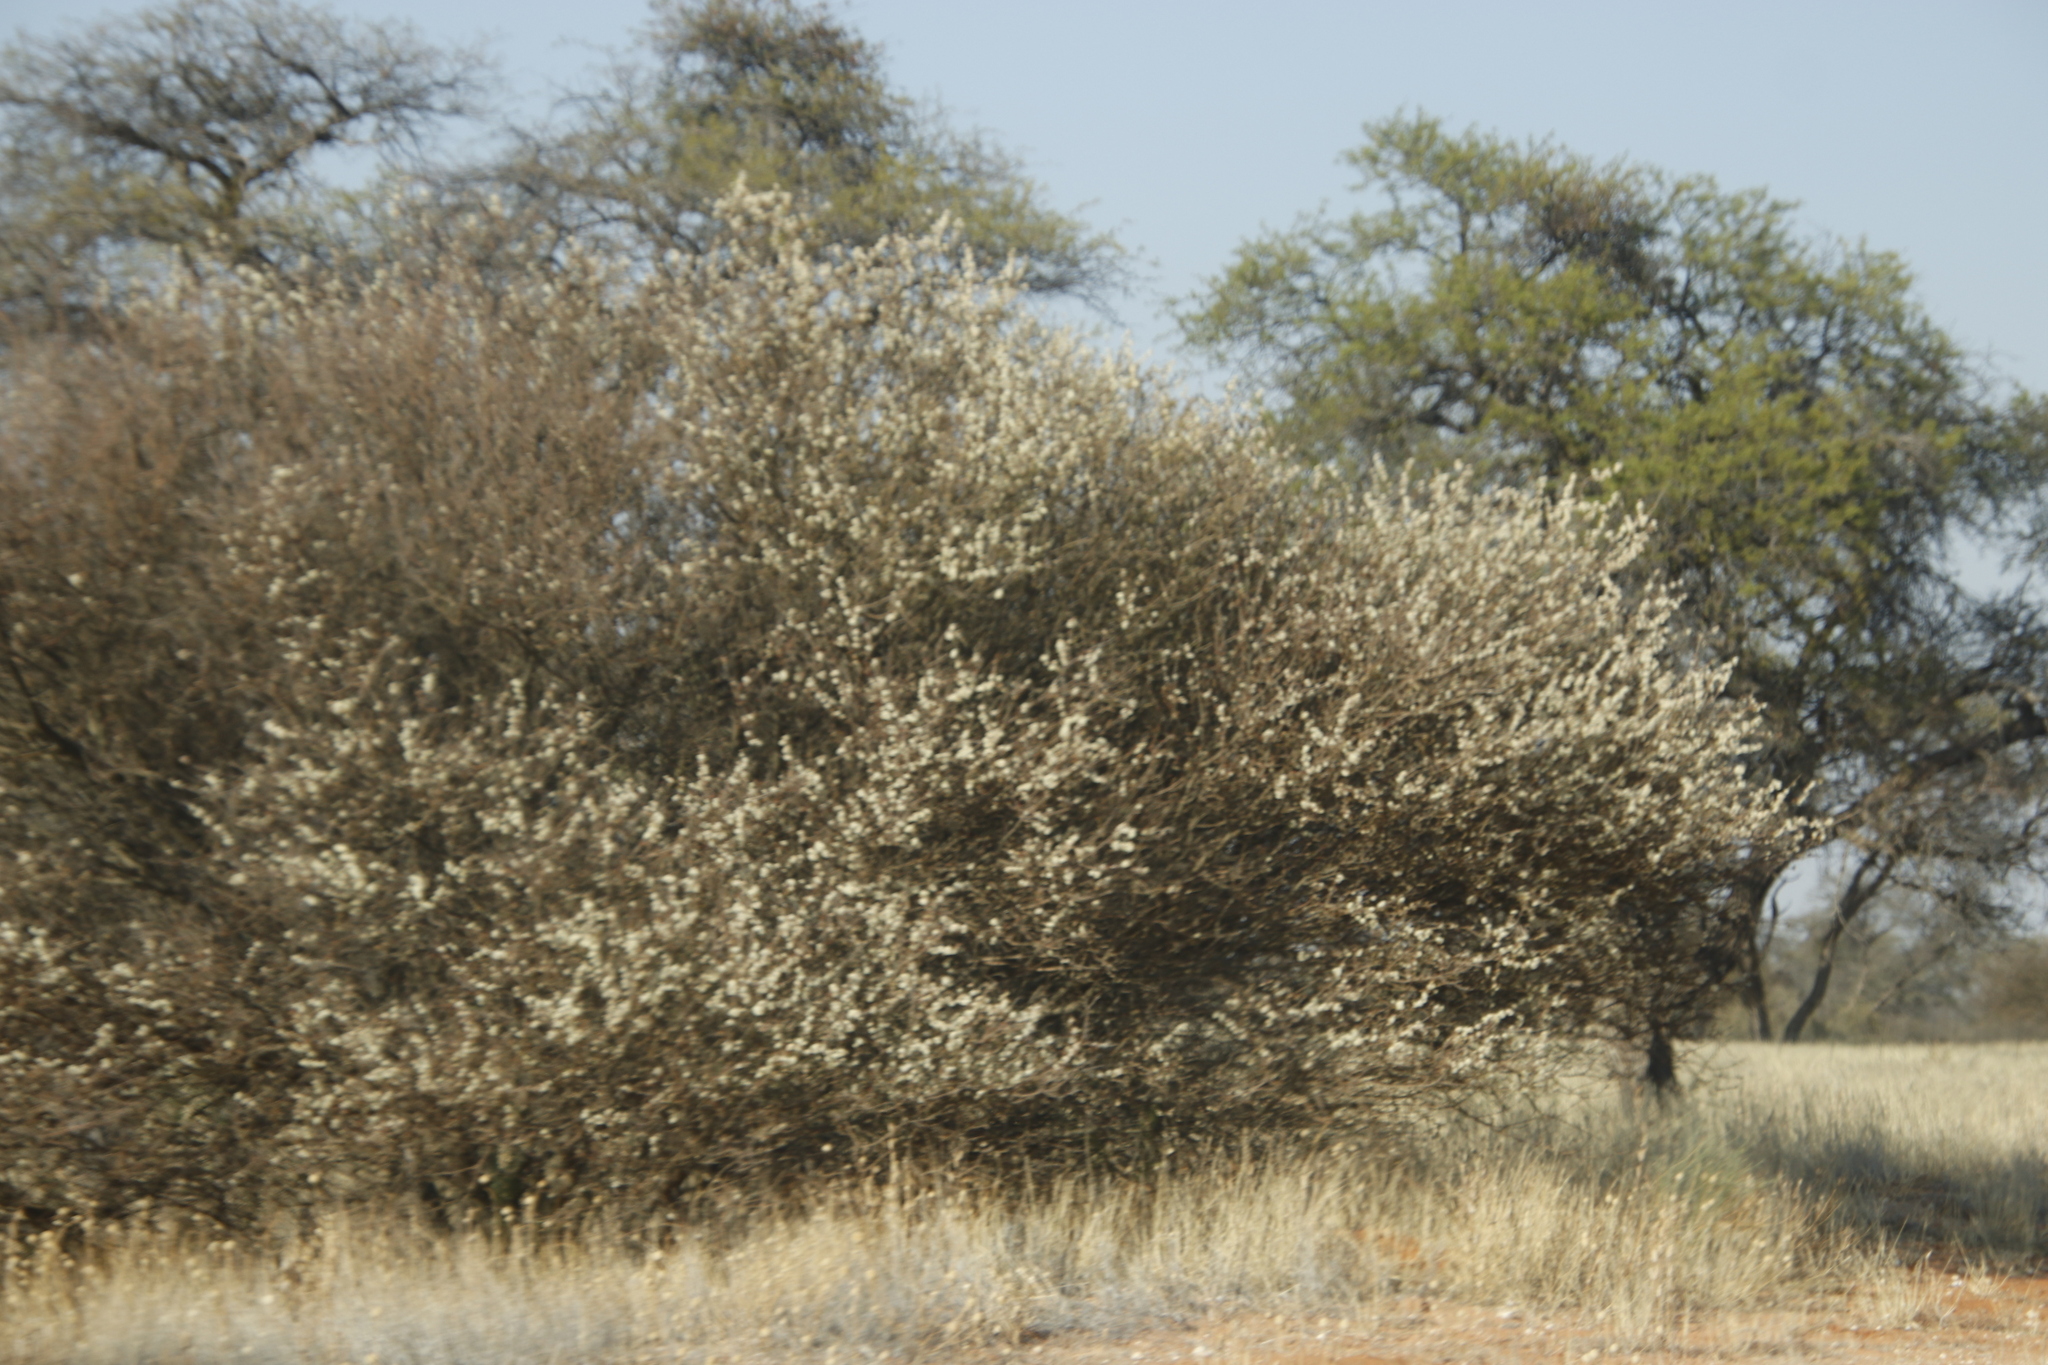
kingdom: Plantae
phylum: Tracheophyta
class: Magnoliopsida
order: Fabales
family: Fabaceae
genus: Senegalia
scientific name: Senegalia mellifera
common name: Hookthorn
